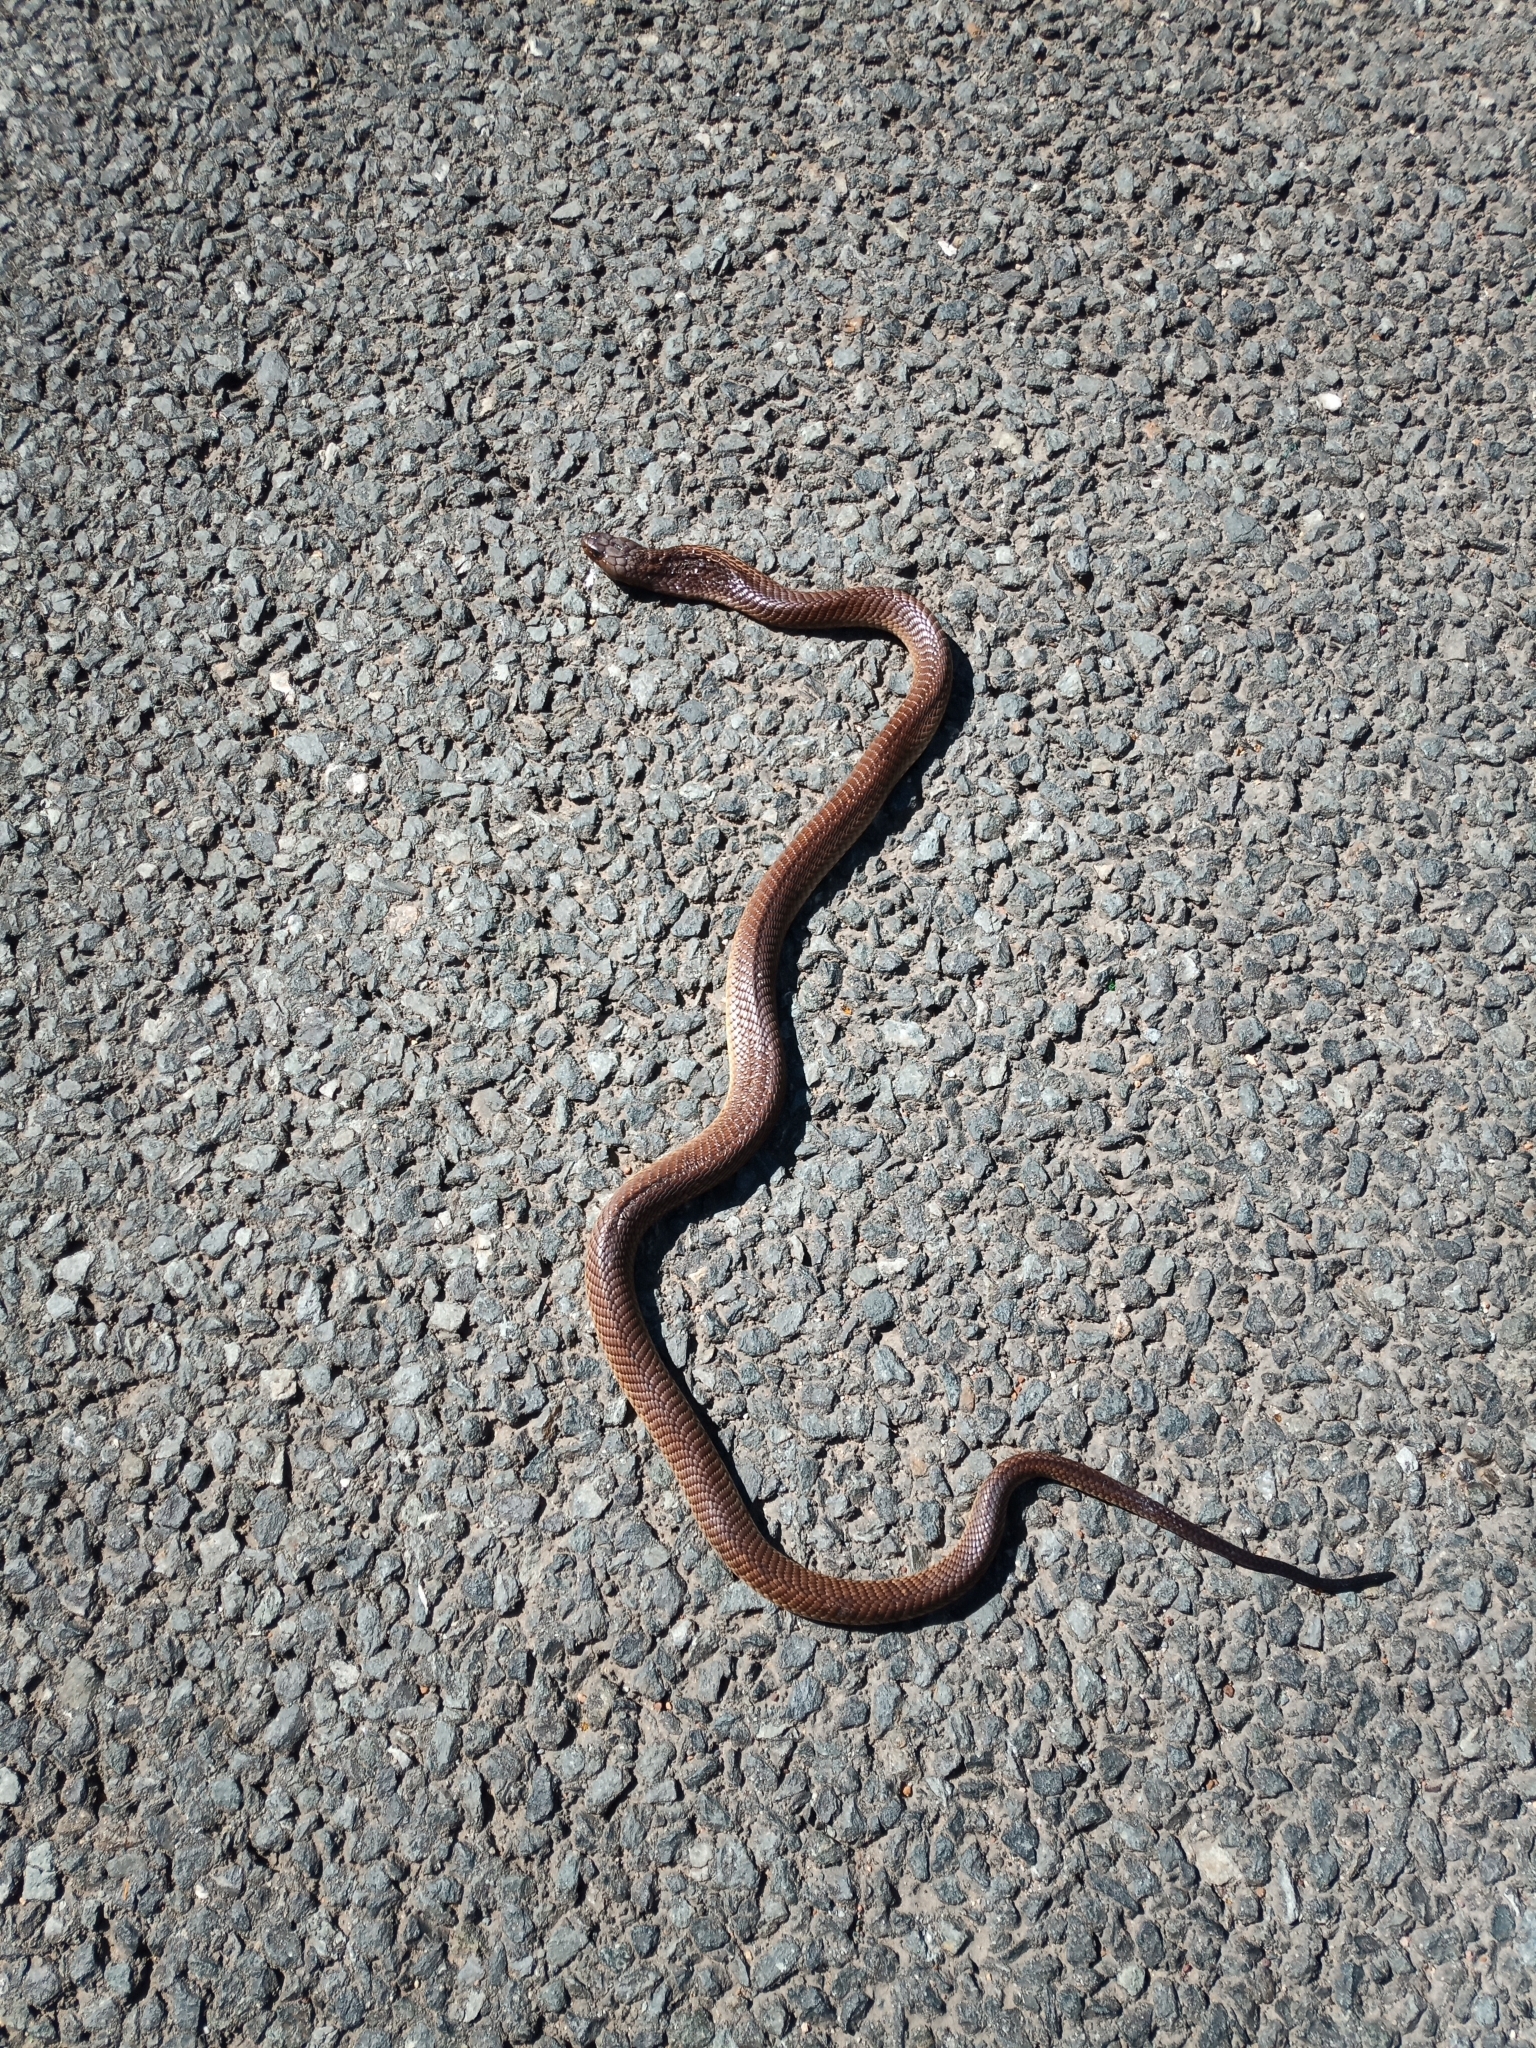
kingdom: Animalia
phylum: Chordata
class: Squamata
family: Elapidae
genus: Naja
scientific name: Naja nivea
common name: Cape cobra
